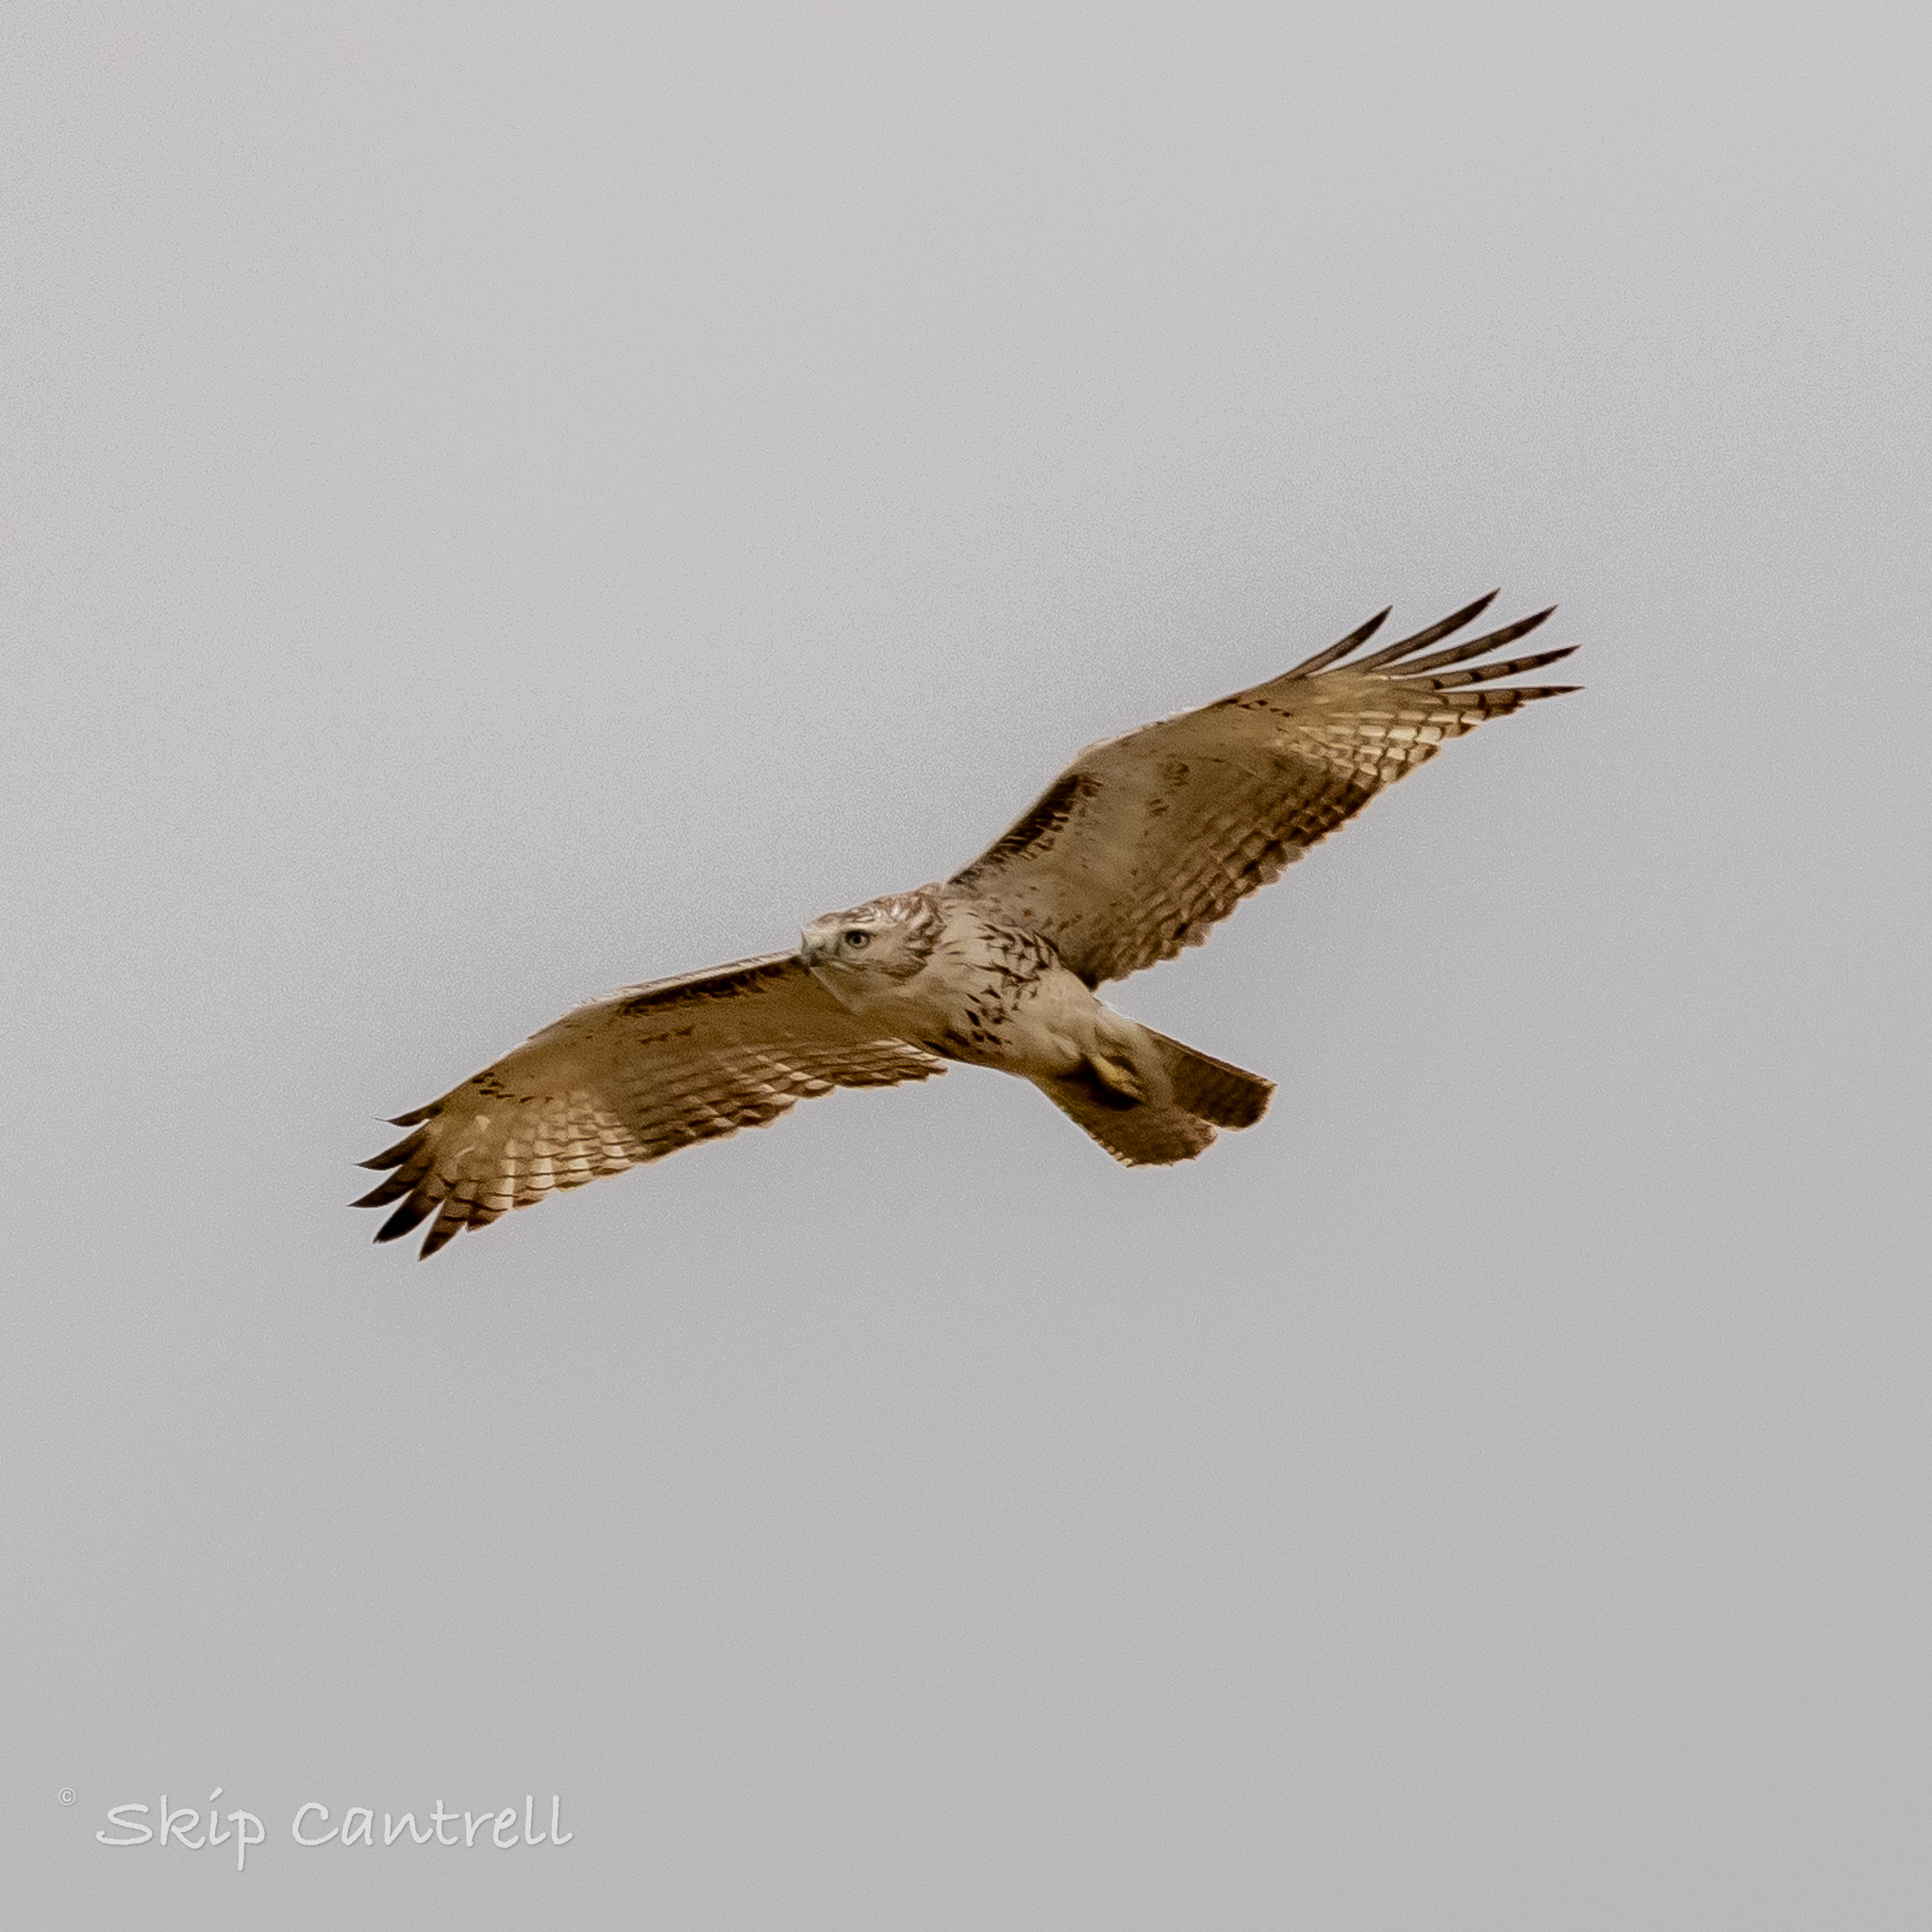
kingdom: Animalia
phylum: Chordata
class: Aves
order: Accipitriformes
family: Accipitridae
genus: Buteo
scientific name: Buteo jamaicensis
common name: Red-tailed hawk
